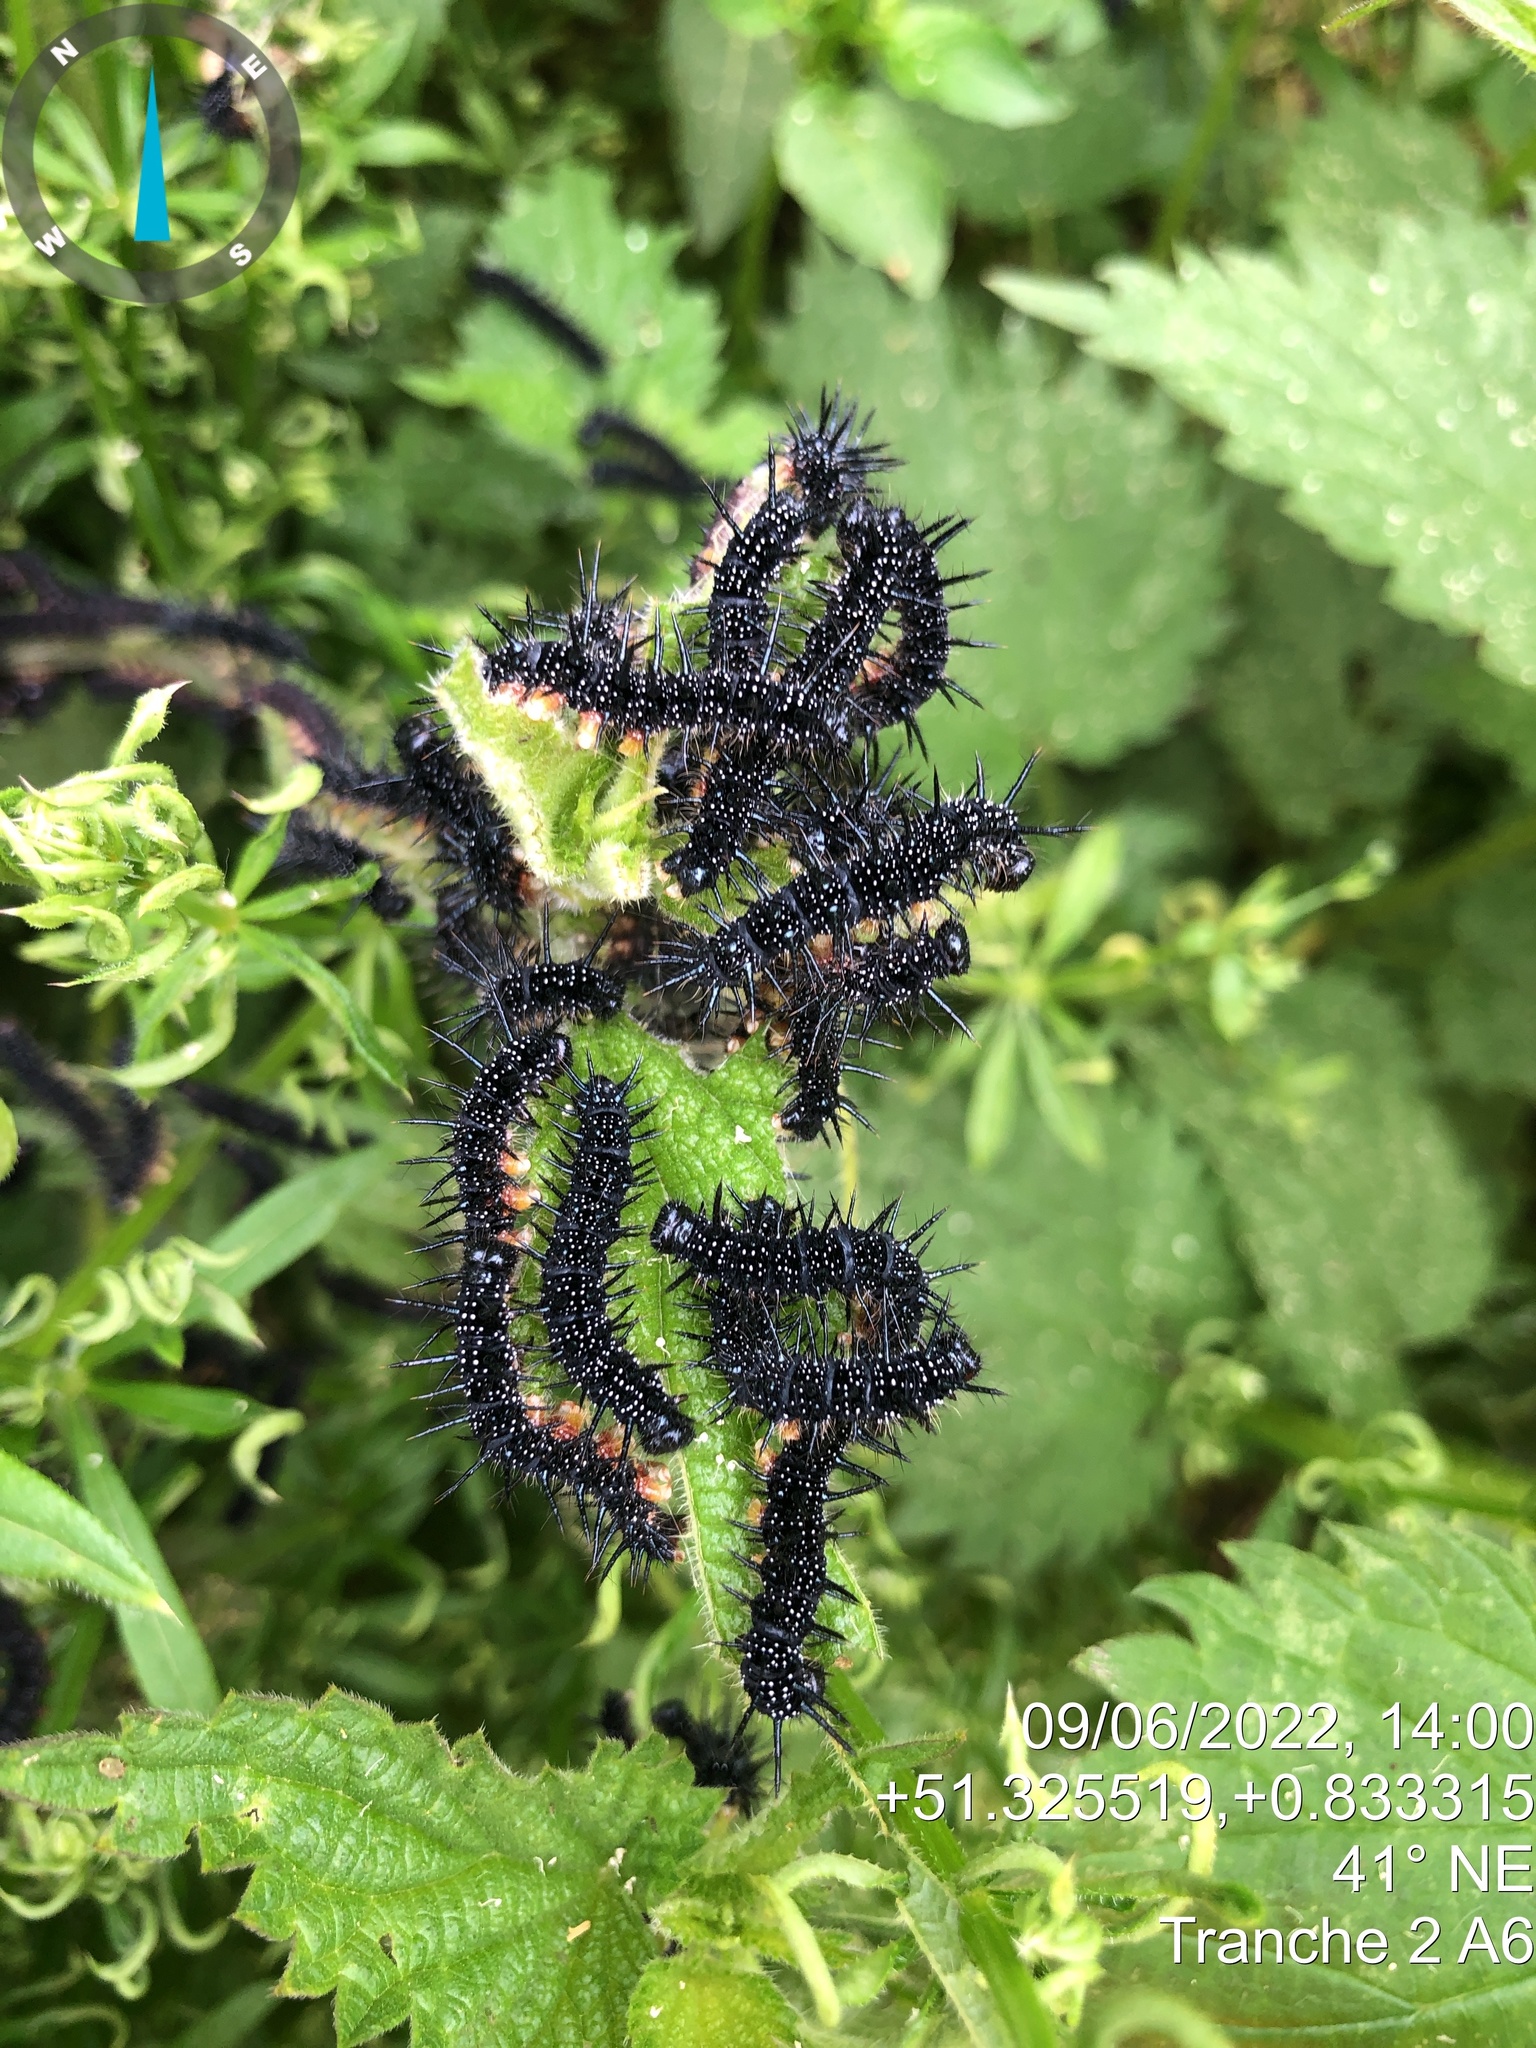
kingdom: Animalia
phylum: Arthropoda
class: Insecta
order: Lepidoptera
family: Nymphalidae
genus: Aglais
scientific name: Aglais io
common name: Peacock
